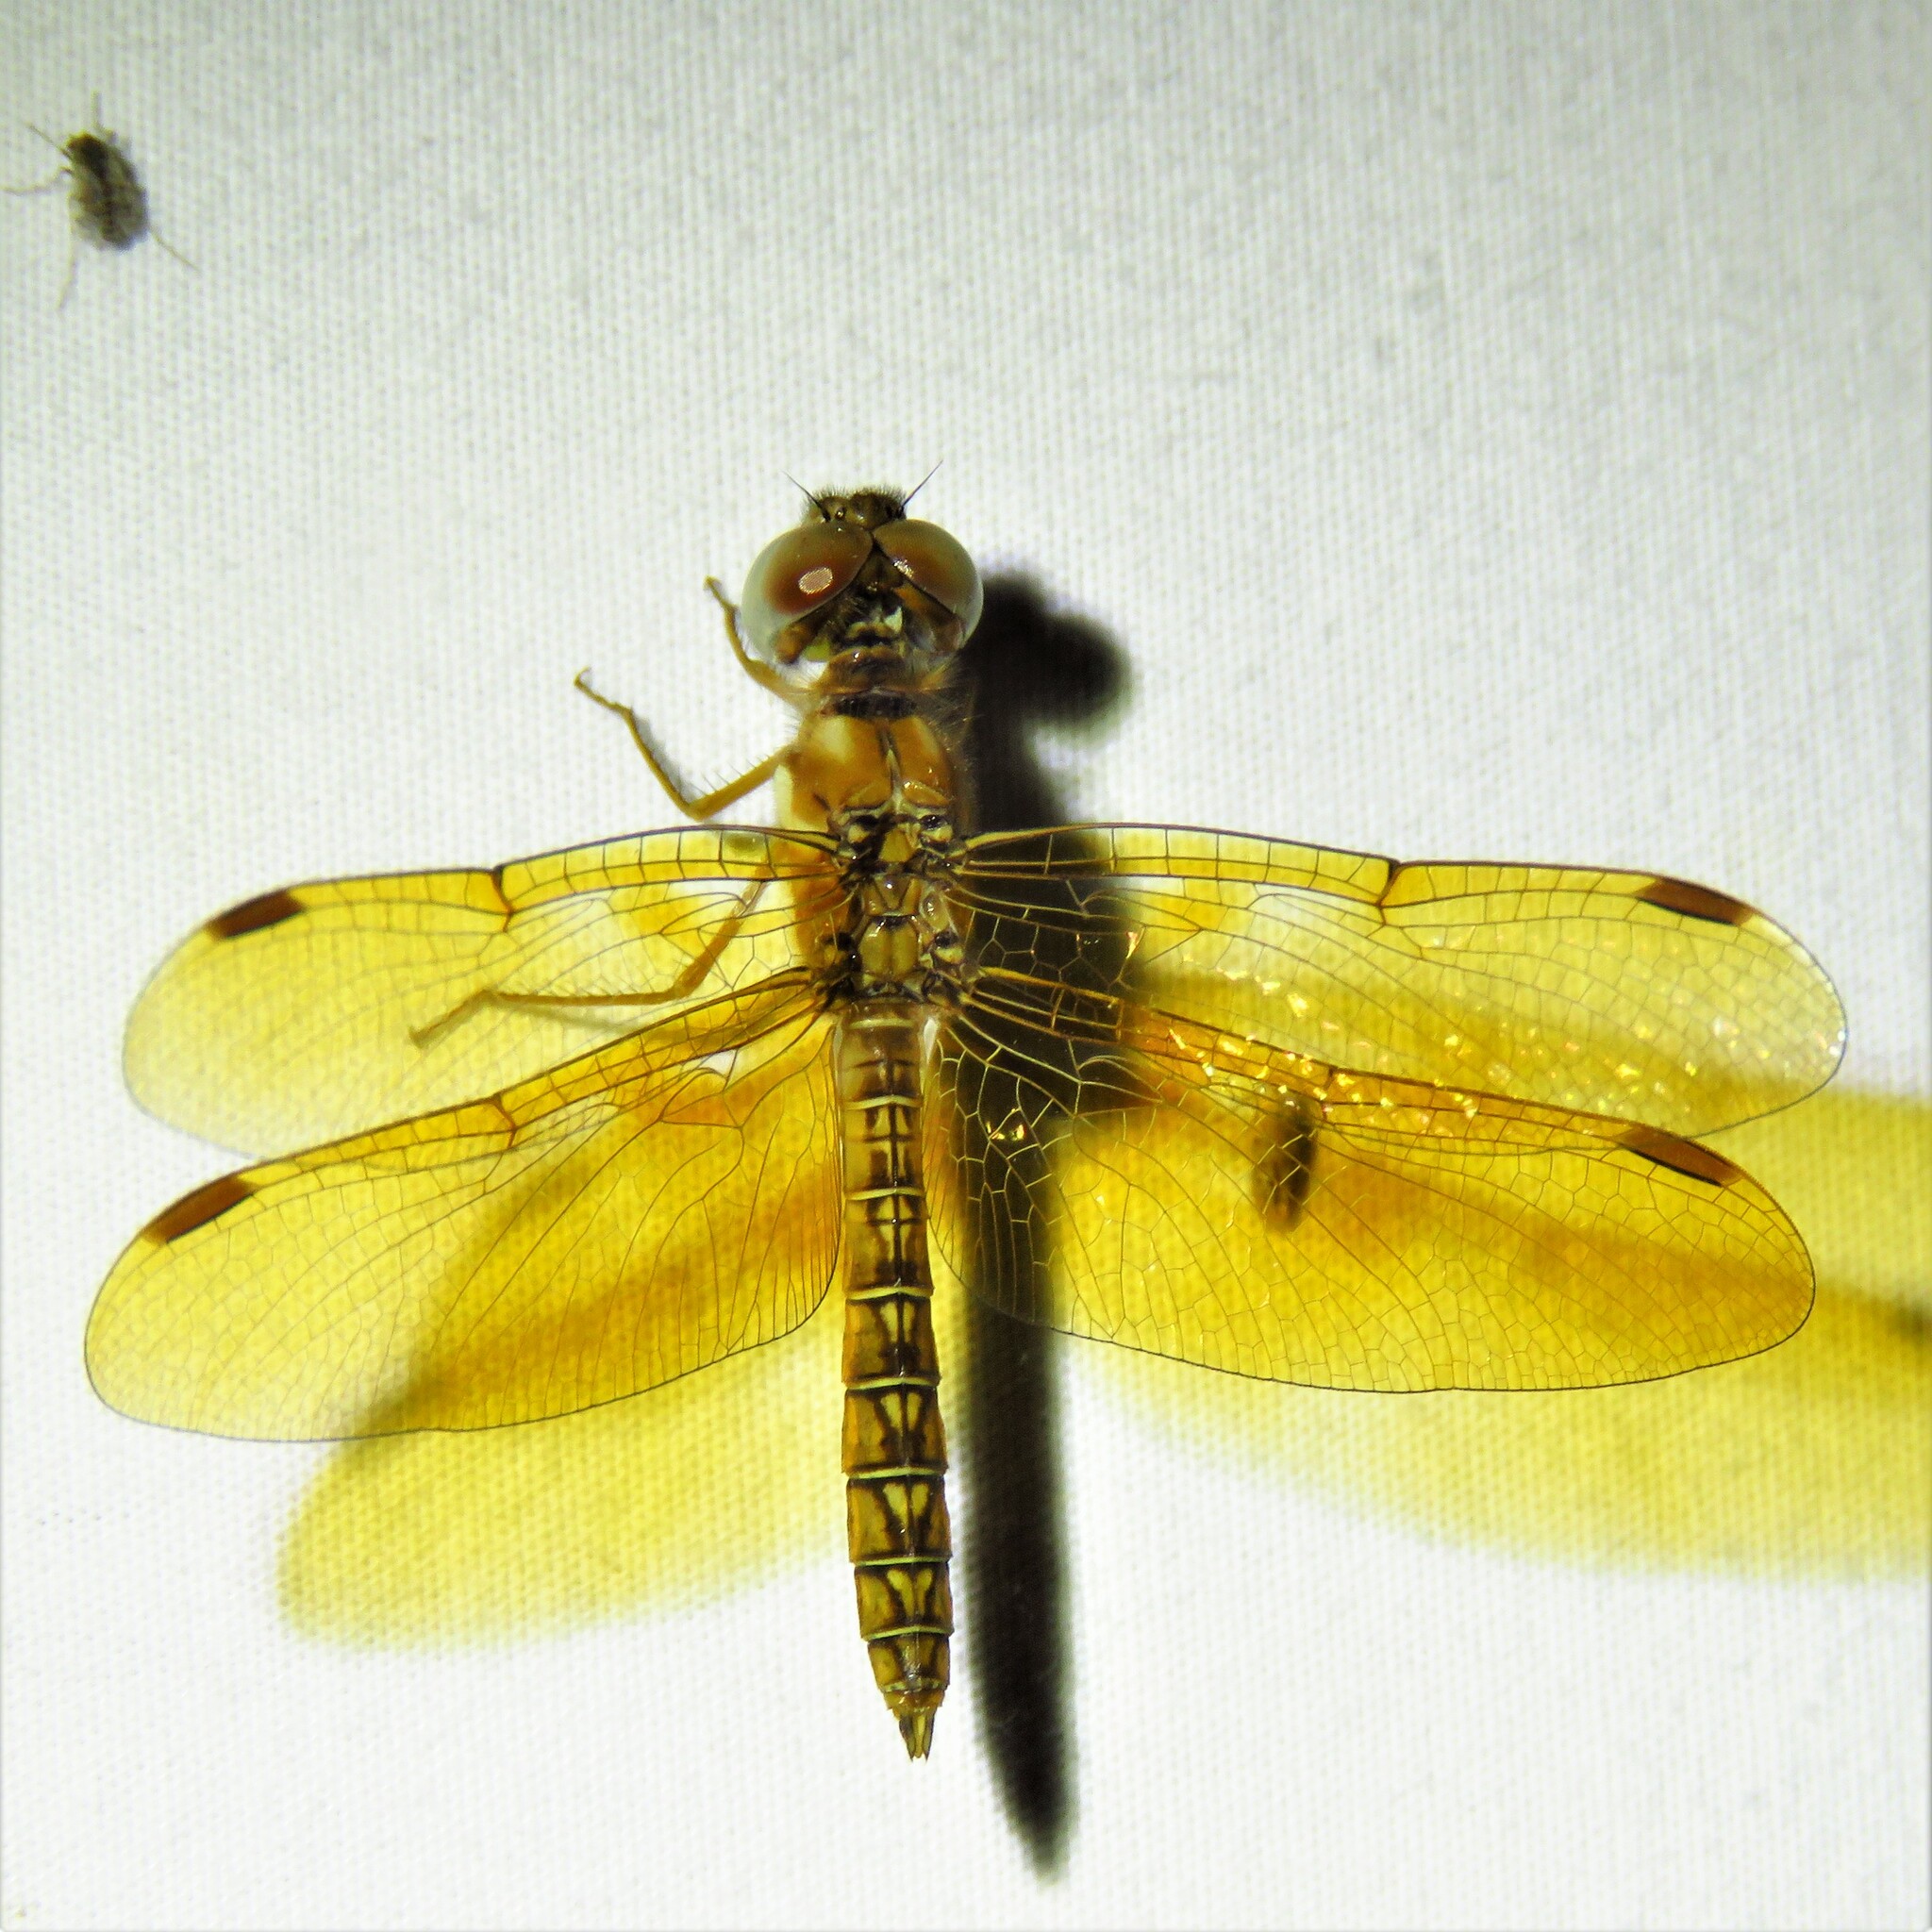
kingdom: Animalia
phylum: Arthropoda
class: Insecta
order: Odonata
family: Libellulidae
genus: Perithemis
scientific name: Perithemis tenera
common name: Eastern amberwing
